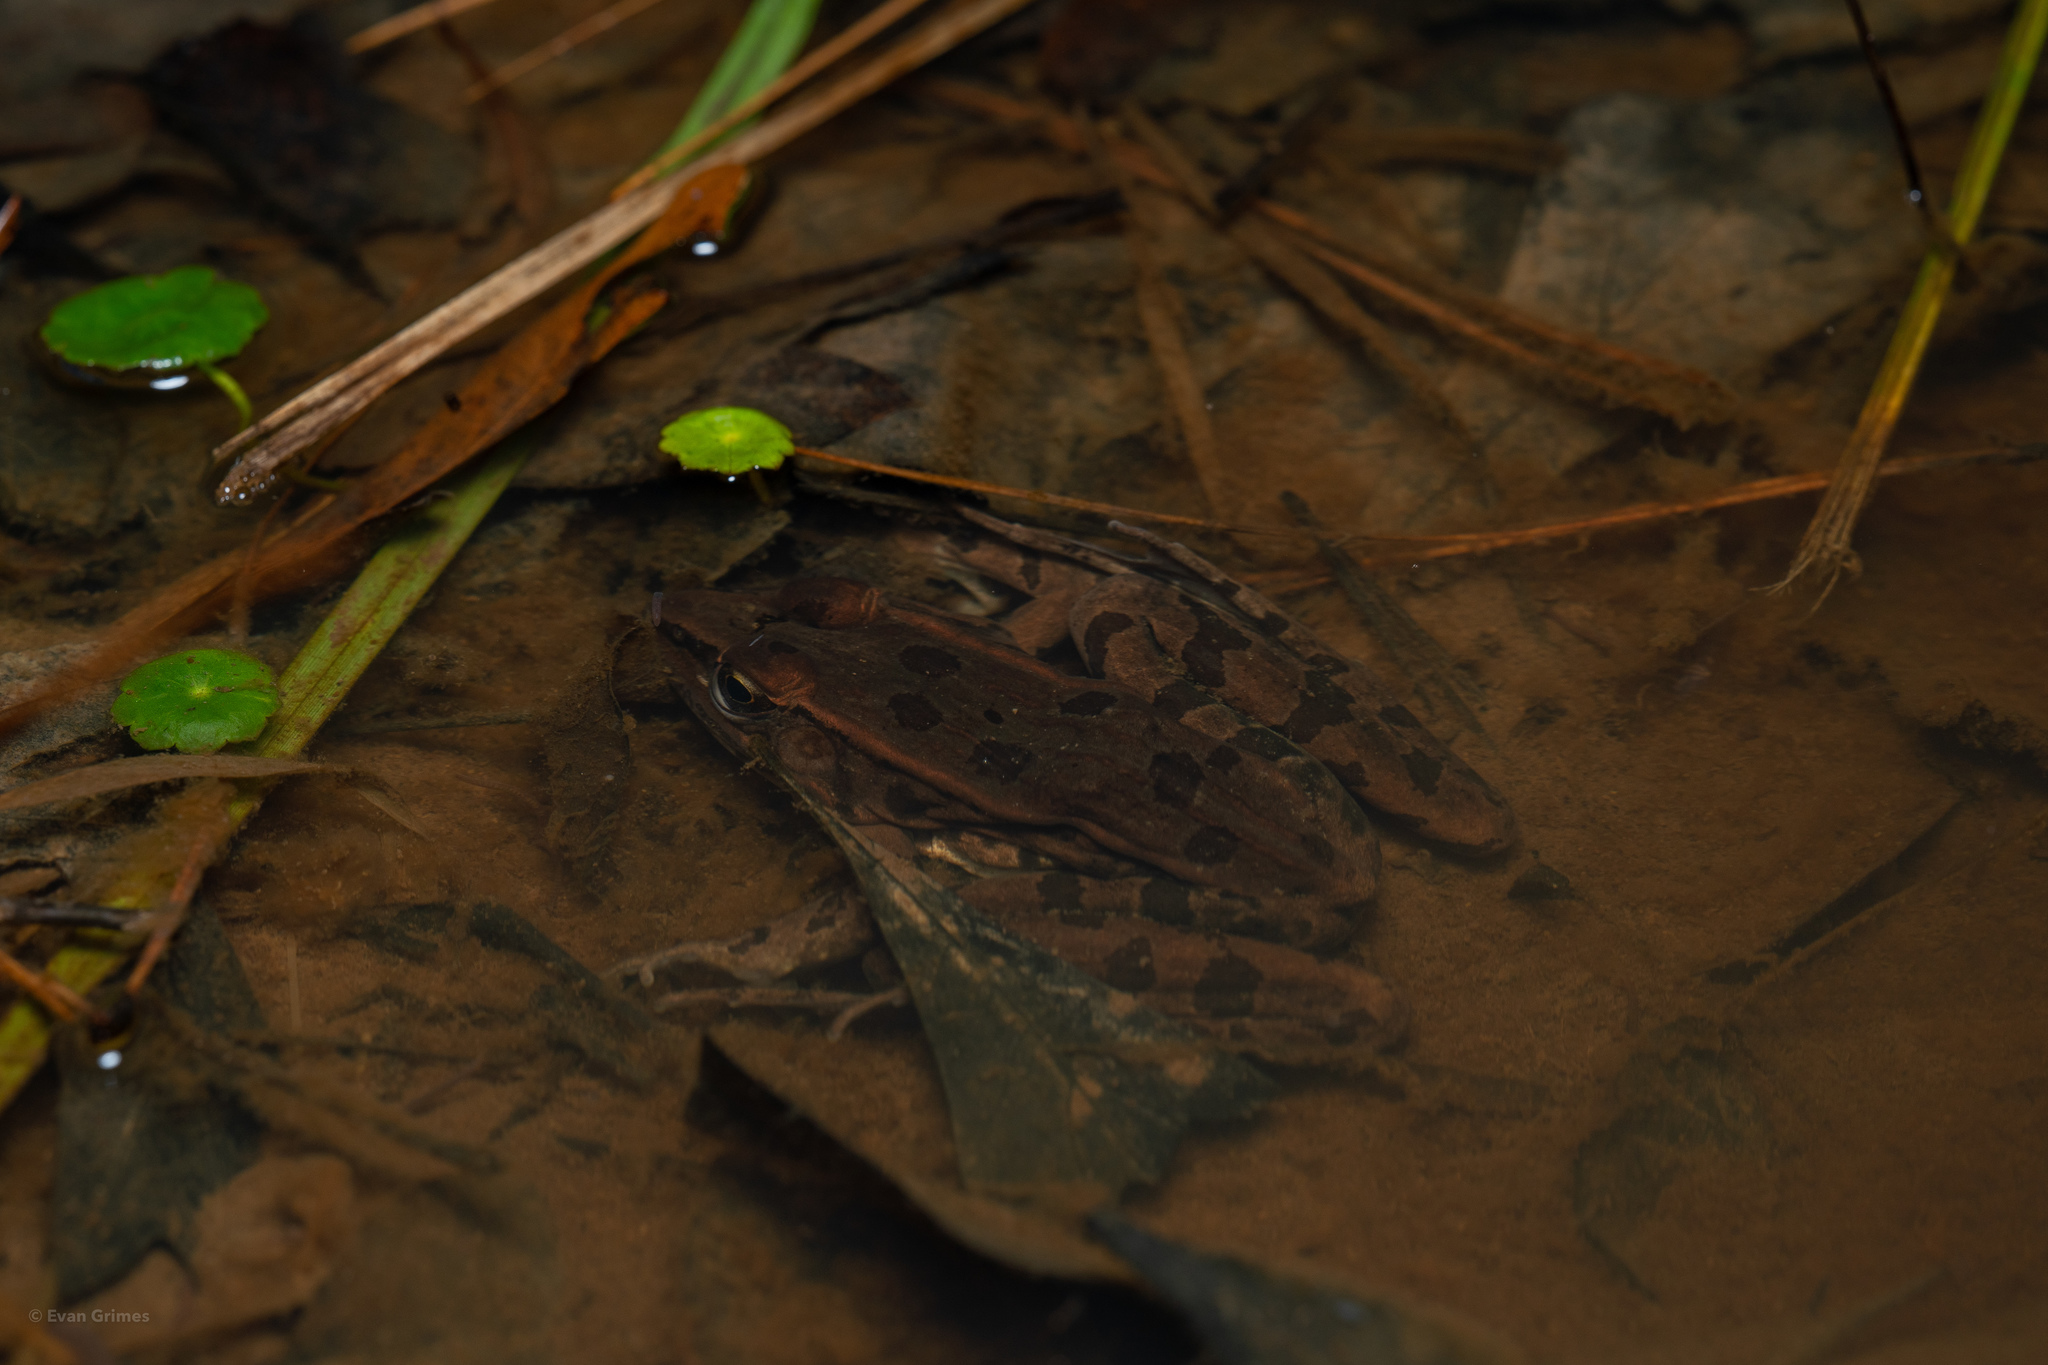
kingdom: Animalia
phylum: Chordata
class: Amphibia
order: Anura
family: Ranidae
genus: Lithobates
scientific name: Lithobates sphenocephalus
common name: Southern leopard frog
